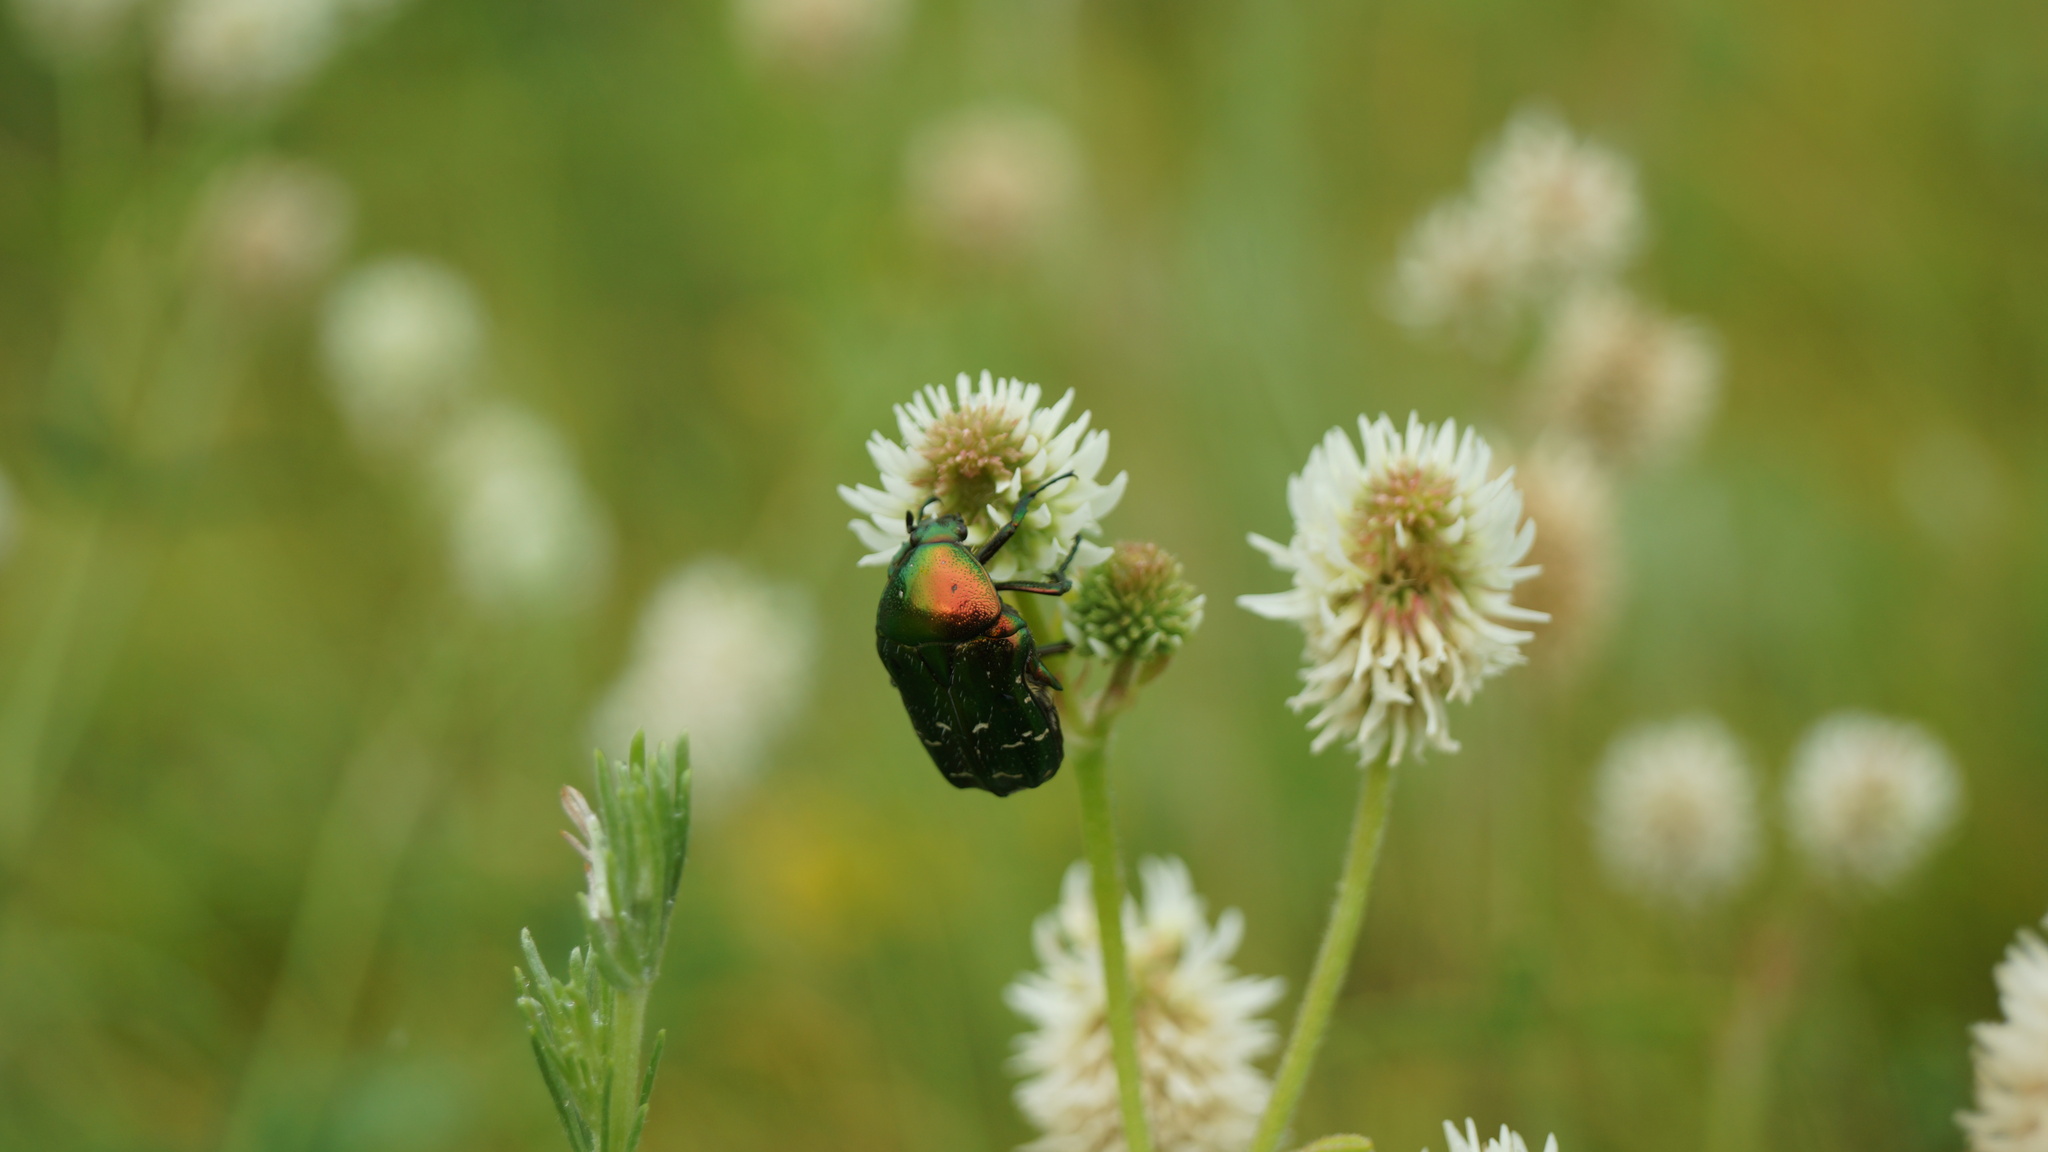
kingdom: Animalia
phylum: Arthropoda
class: Insecta
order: Coleoptera
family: Scarabaeidae
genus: Cetonia
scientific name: Cetonia aurata
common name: Rose chafer
